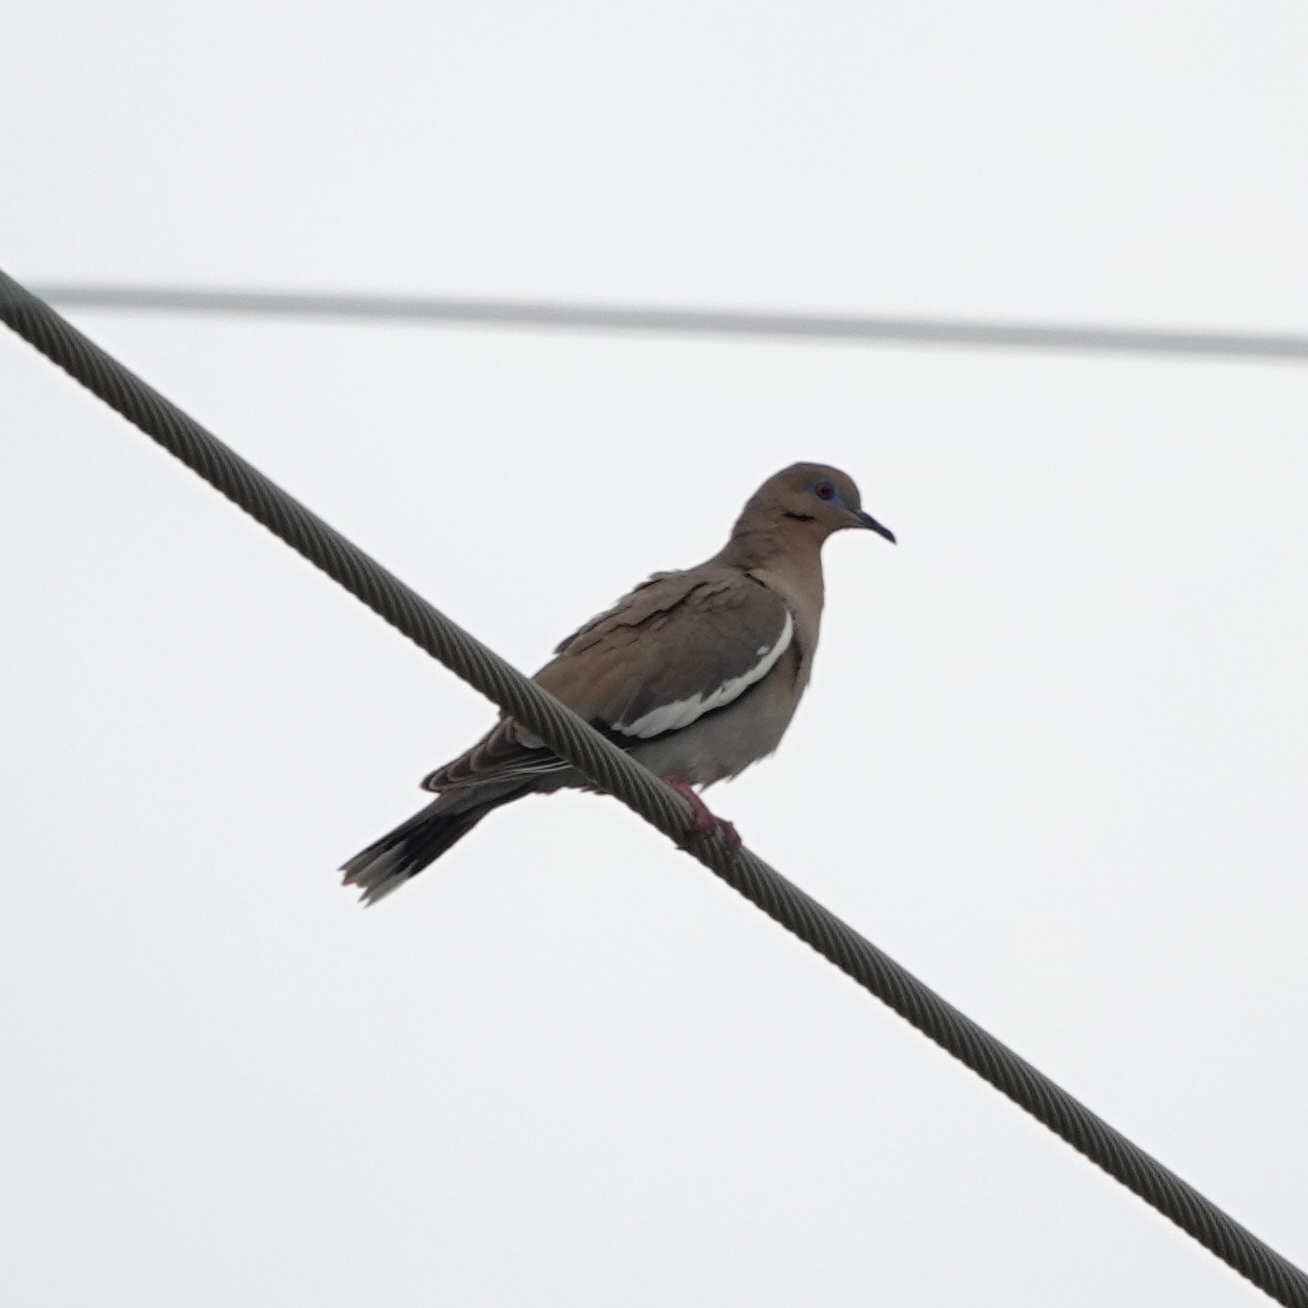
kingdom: Animalia
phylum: Chordata
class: Aves
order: Columbiformes
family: Columbidae
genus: Zenaida
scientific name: Zenaida asiatica
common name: White-winged dove
